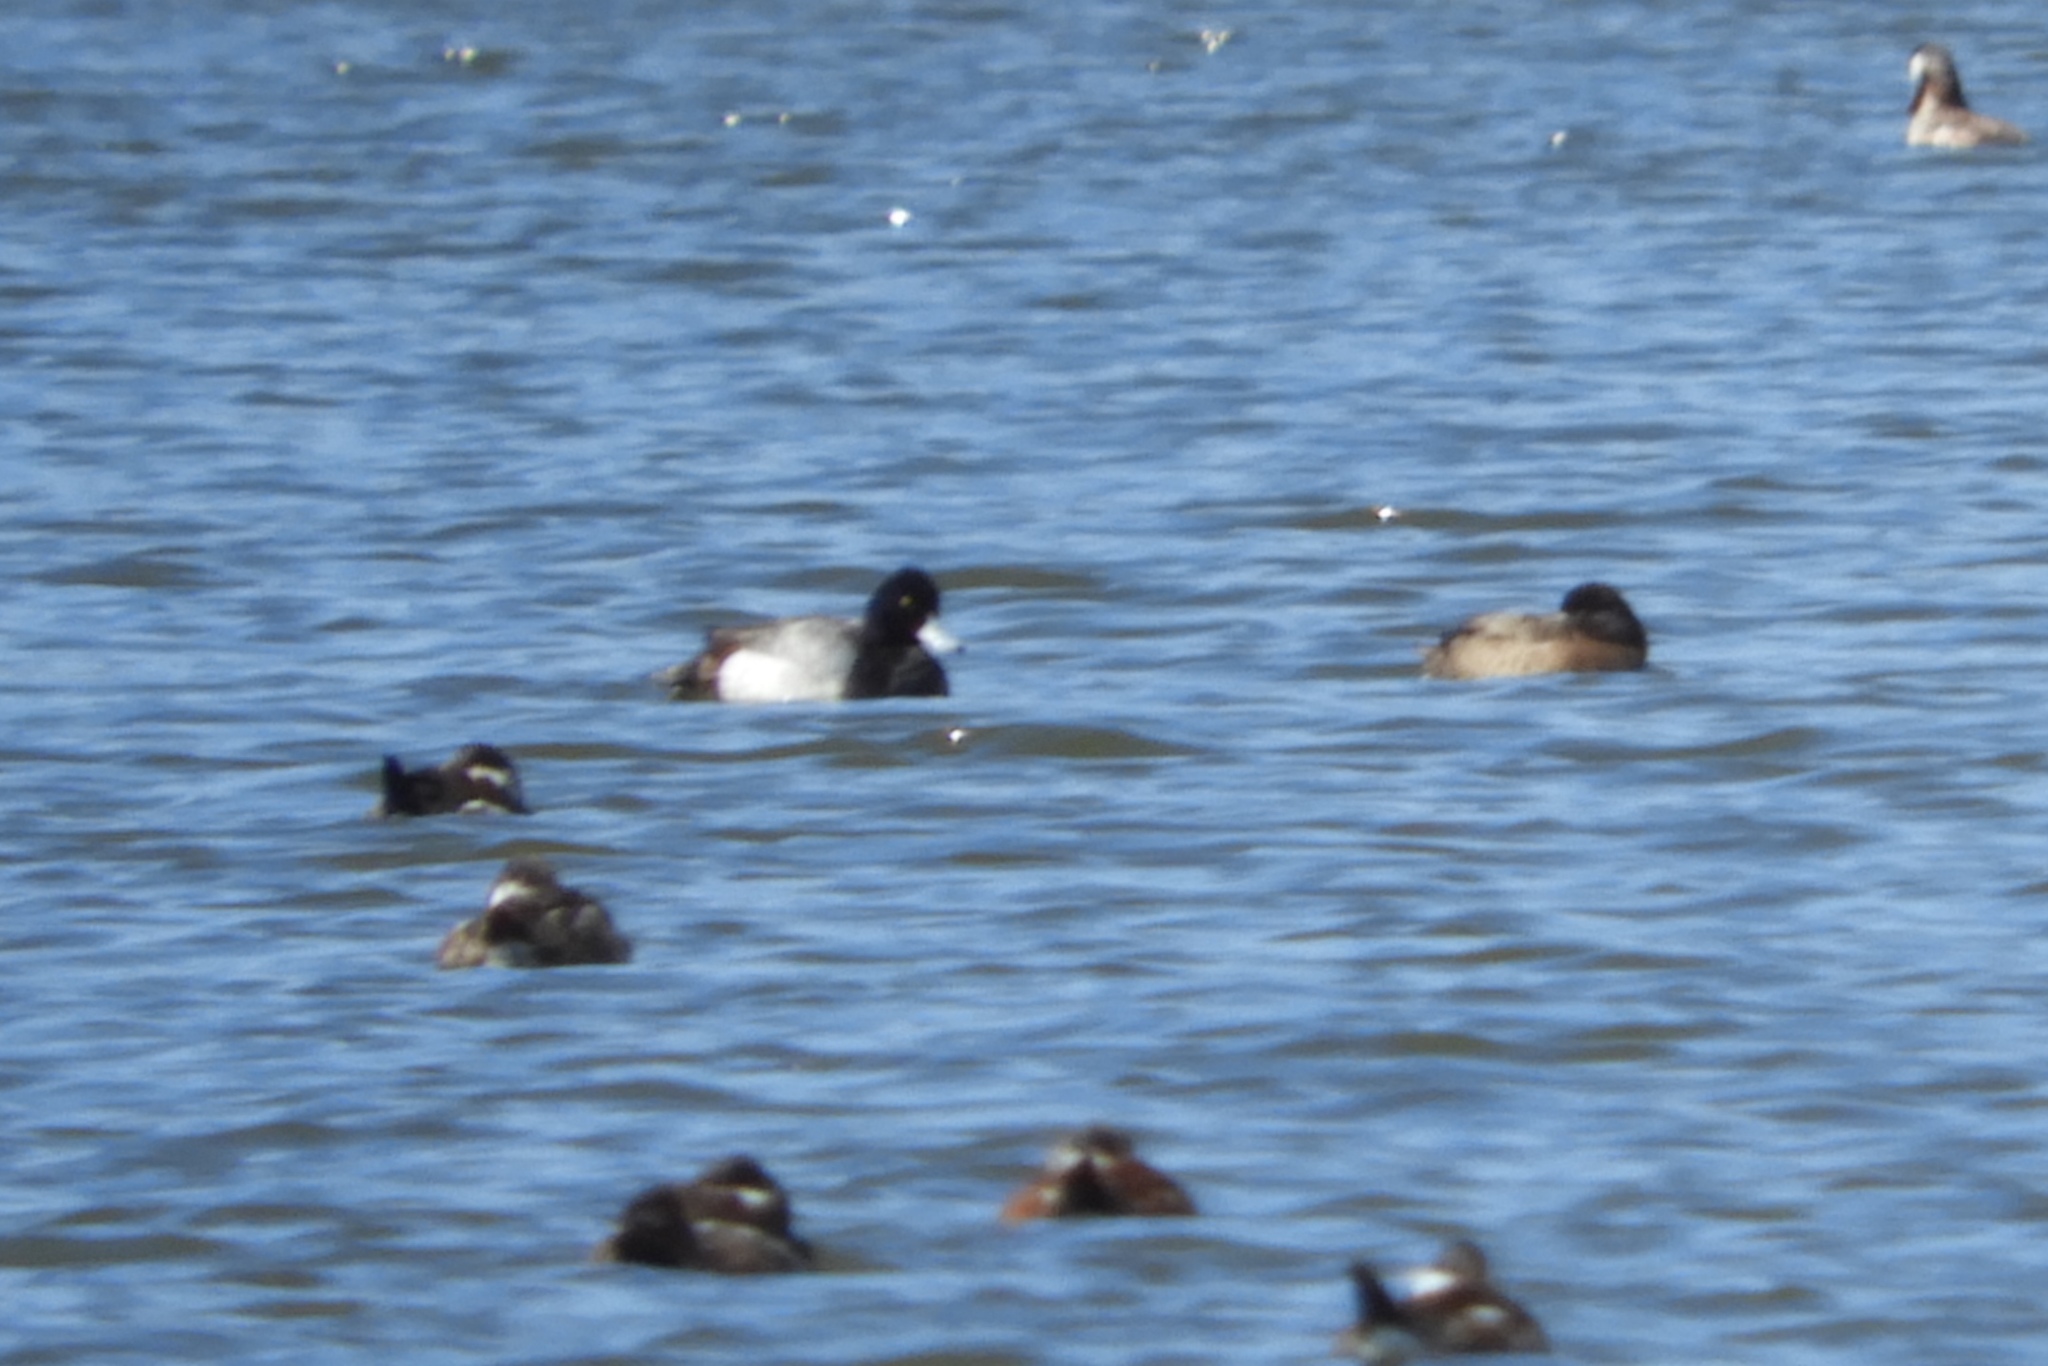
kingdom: Animalia
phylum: Chordata
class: Aves
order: Anseriformes
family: Anatidae
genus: Aythya
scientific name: Aythya marila
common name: Greater scaup
